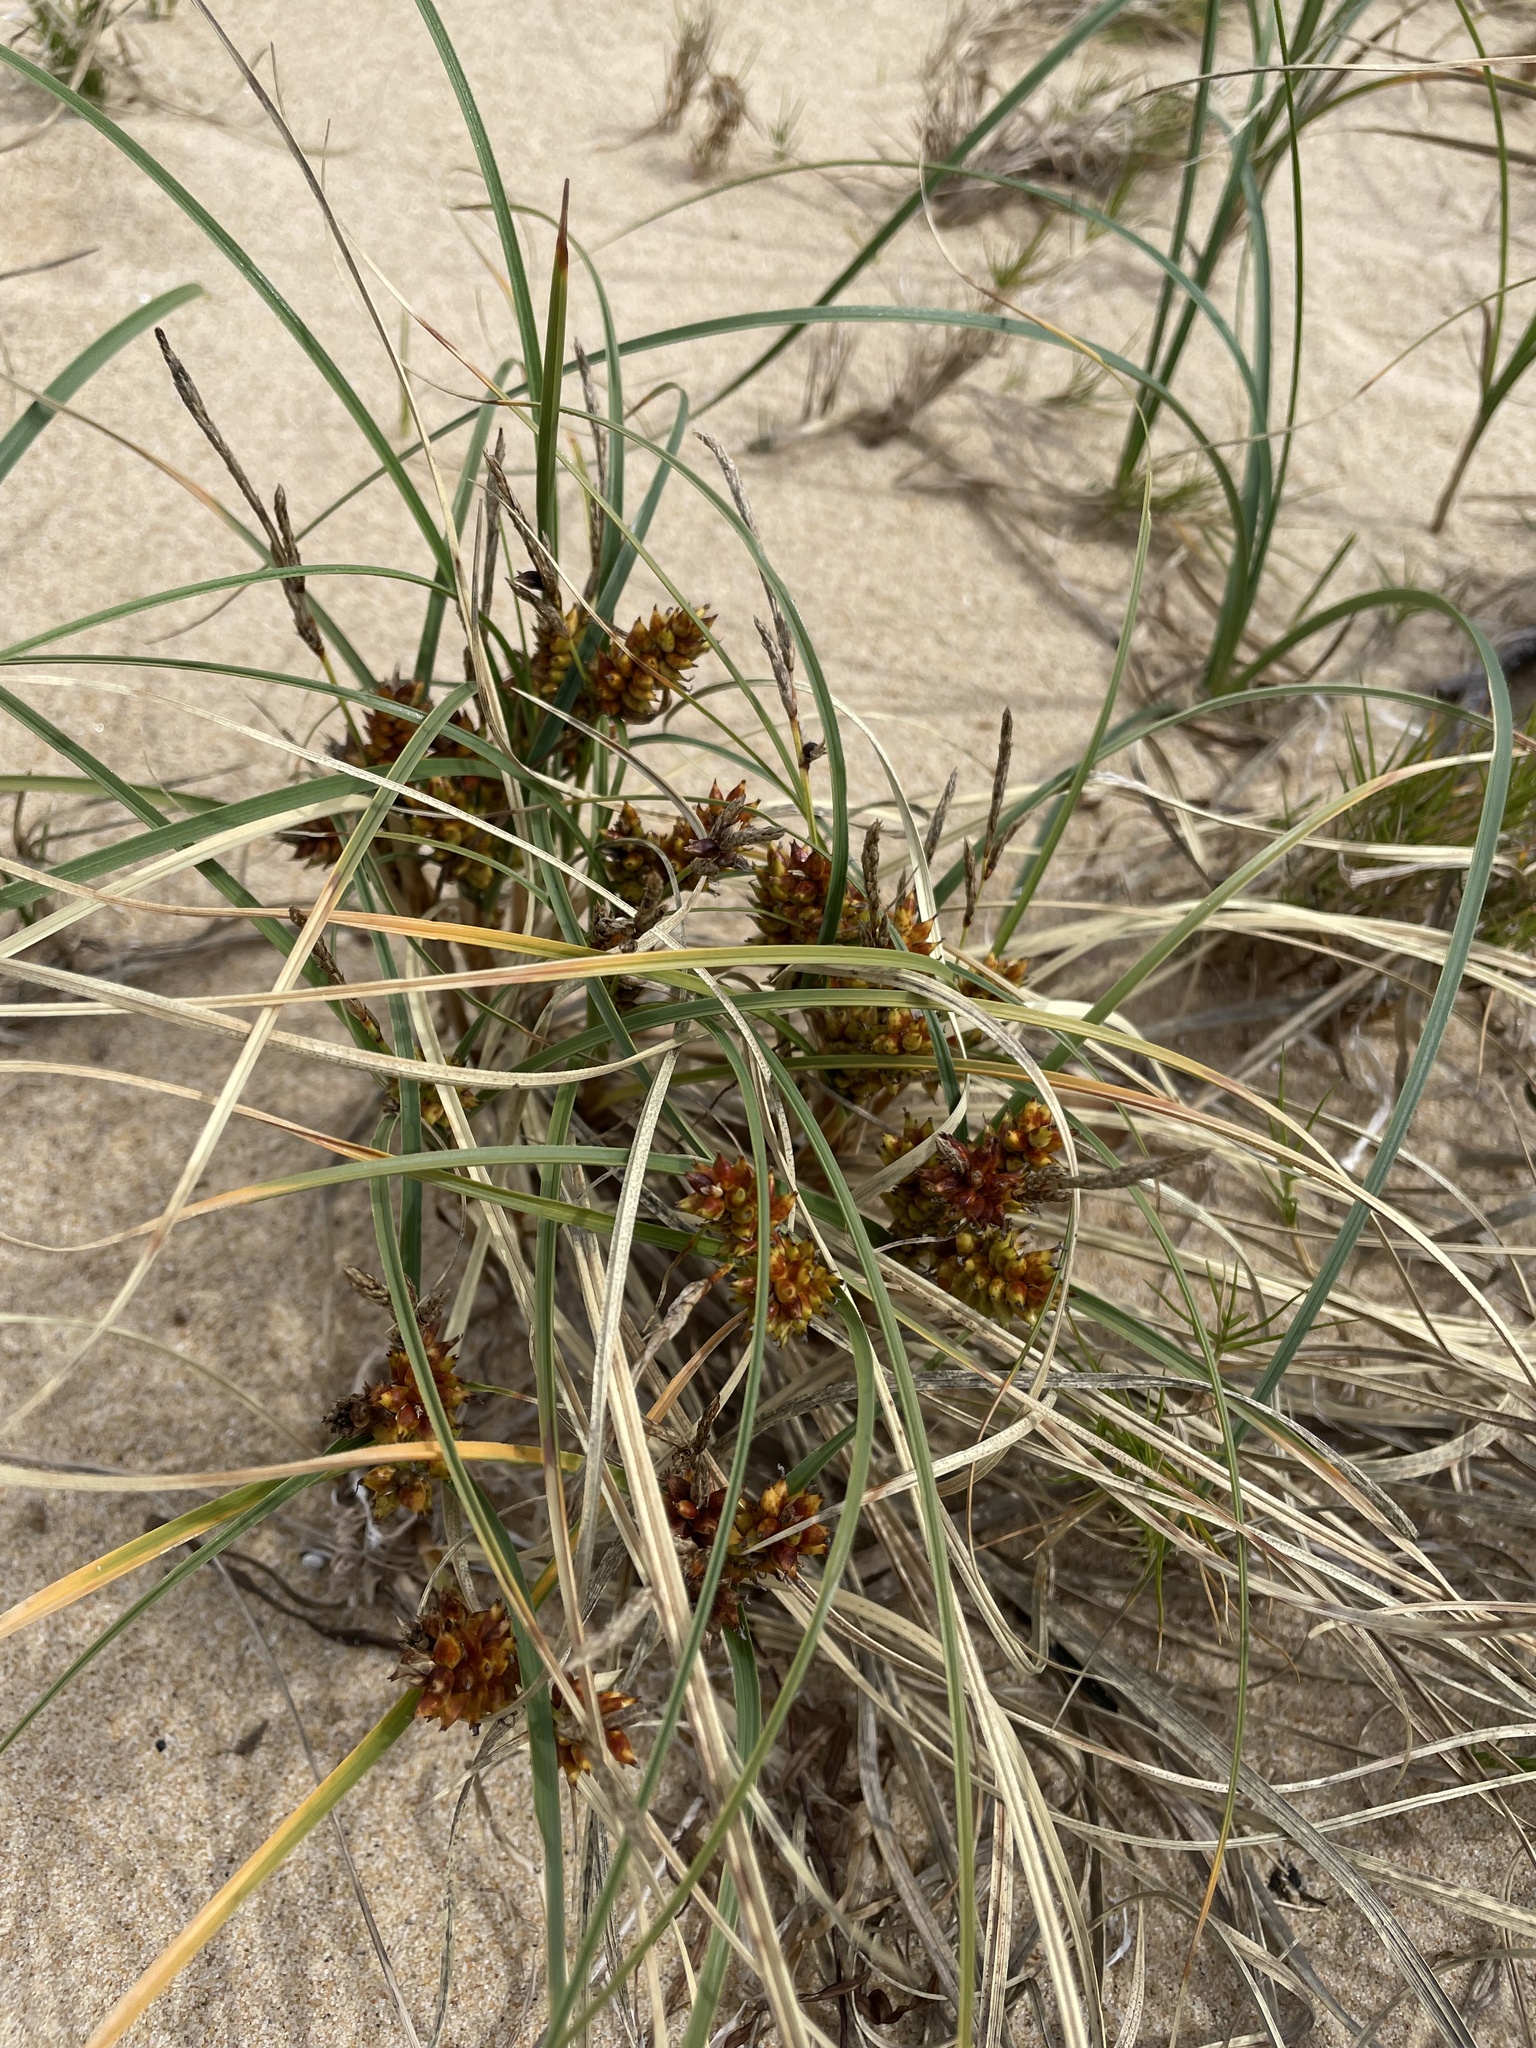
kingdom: Plantae
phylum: Tracheophyta
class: Liliopsida
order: Poales
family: Cyperaceae
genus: Carex
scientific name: Carex pumila
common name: Dwarf sedge
